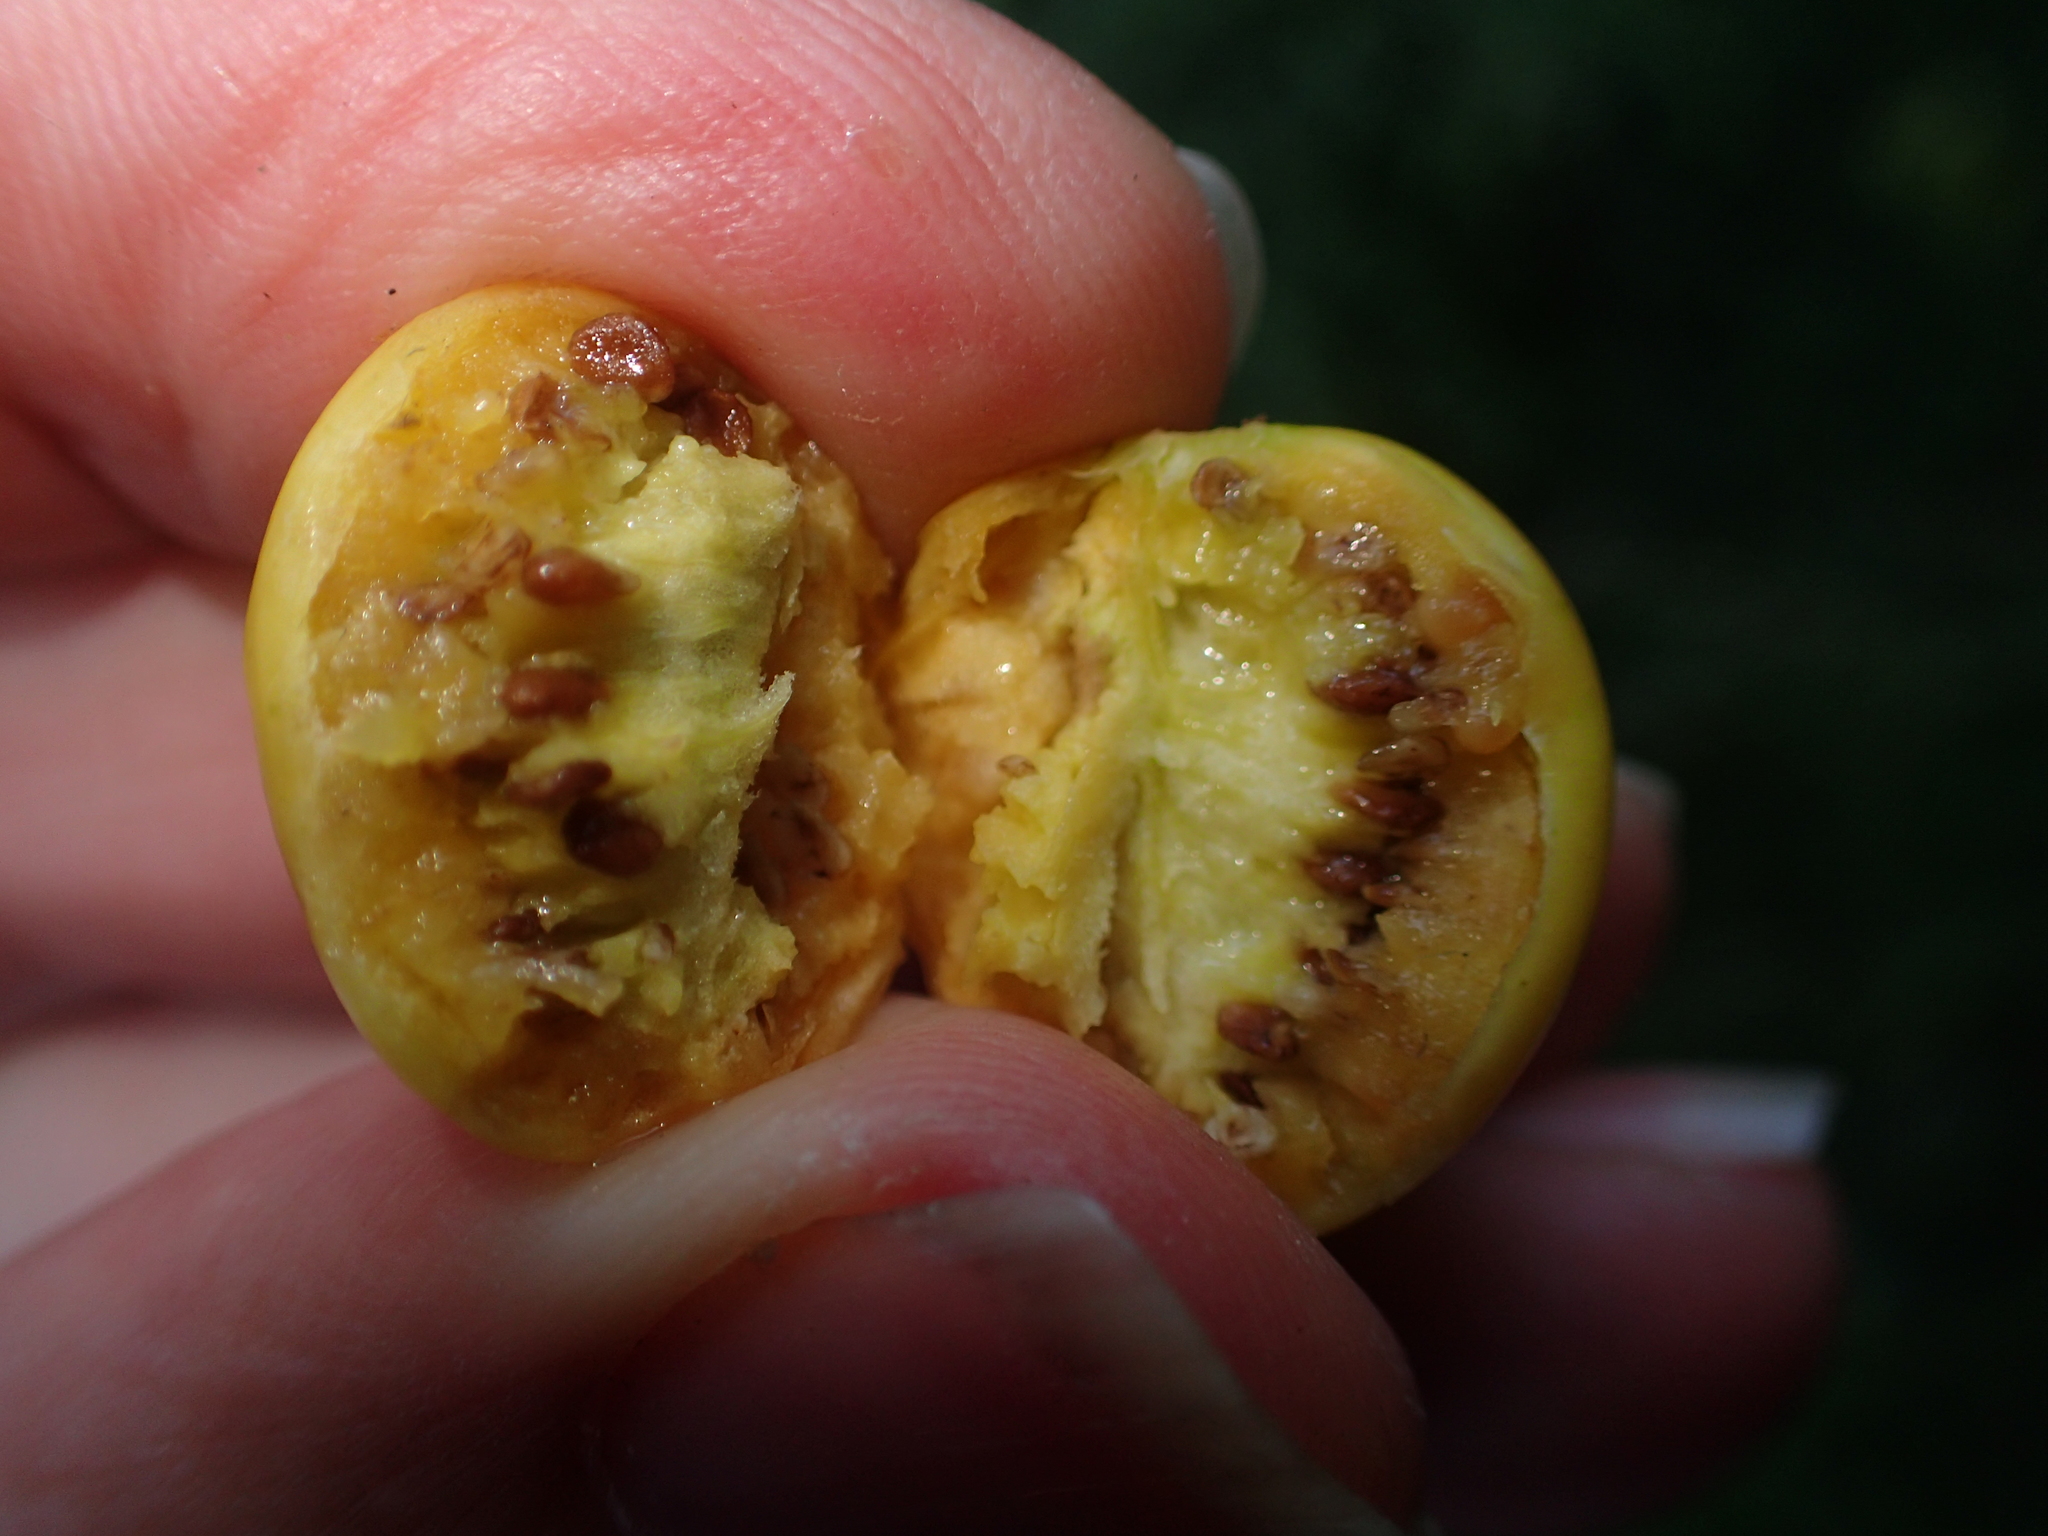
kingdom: Plantae
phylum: Tracheophyta
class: Magnoliopsida
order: Solanales
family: Solanaceae
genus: Solanum
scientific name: Solanum
